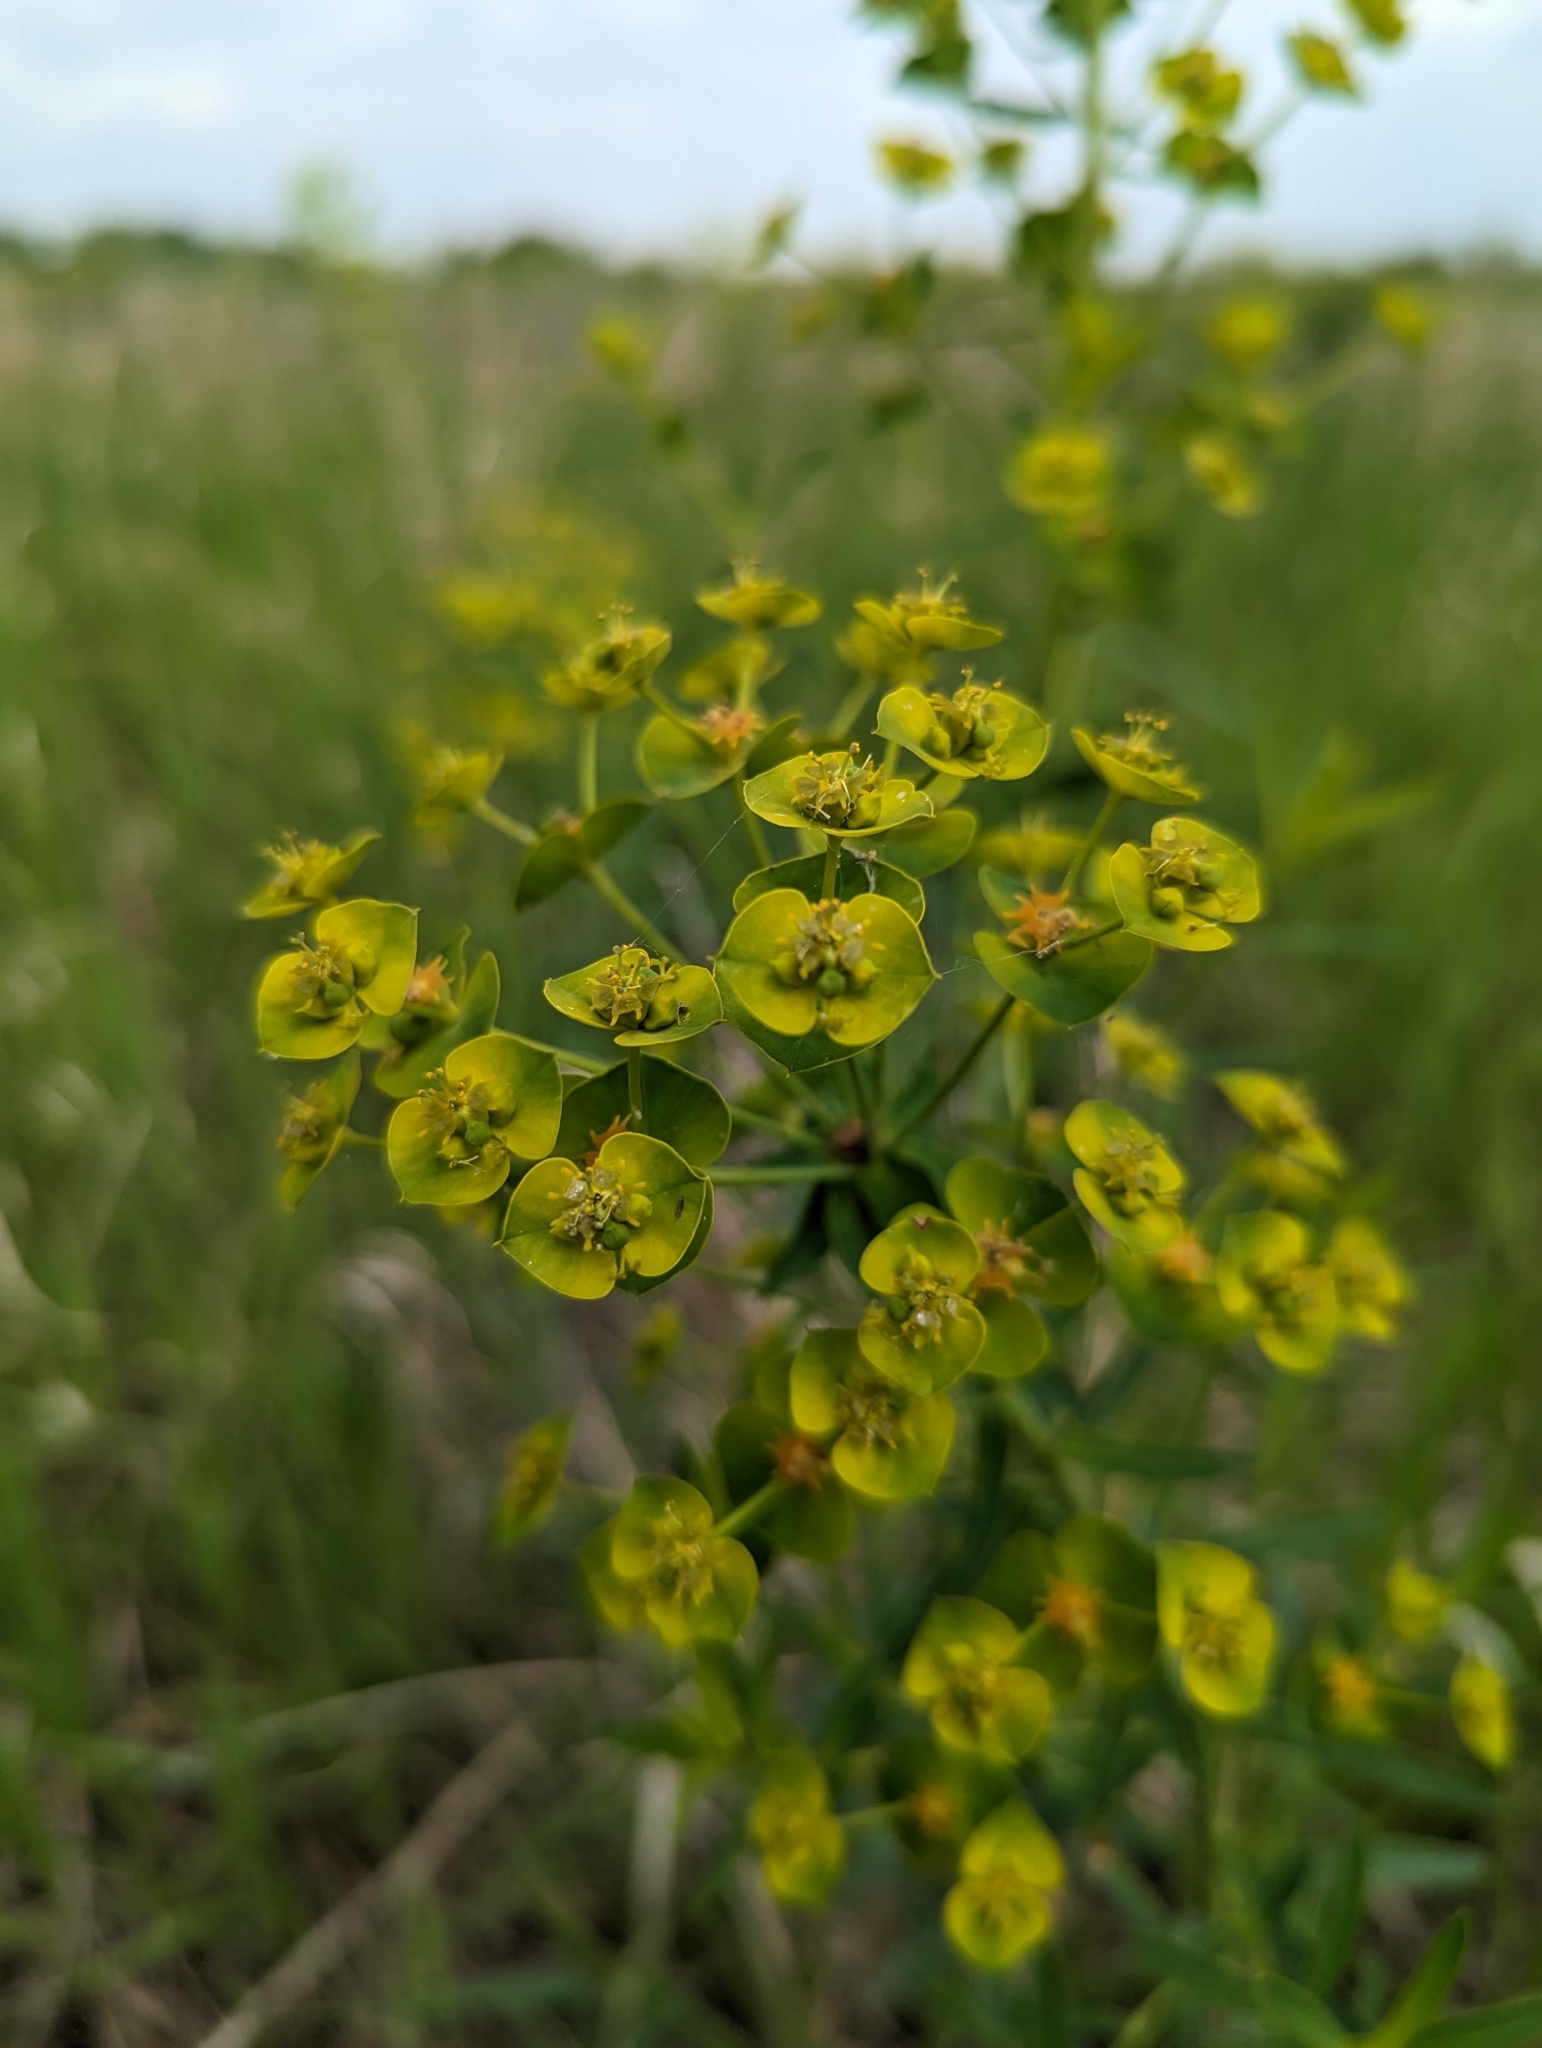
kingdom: Plantae
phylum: Tracheophyta
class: Magnoliopsida
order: Malpighiales
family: Euphorbiaceae
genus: Euphorbia
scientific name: Euphorbia virgata
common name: Leafy spurge
